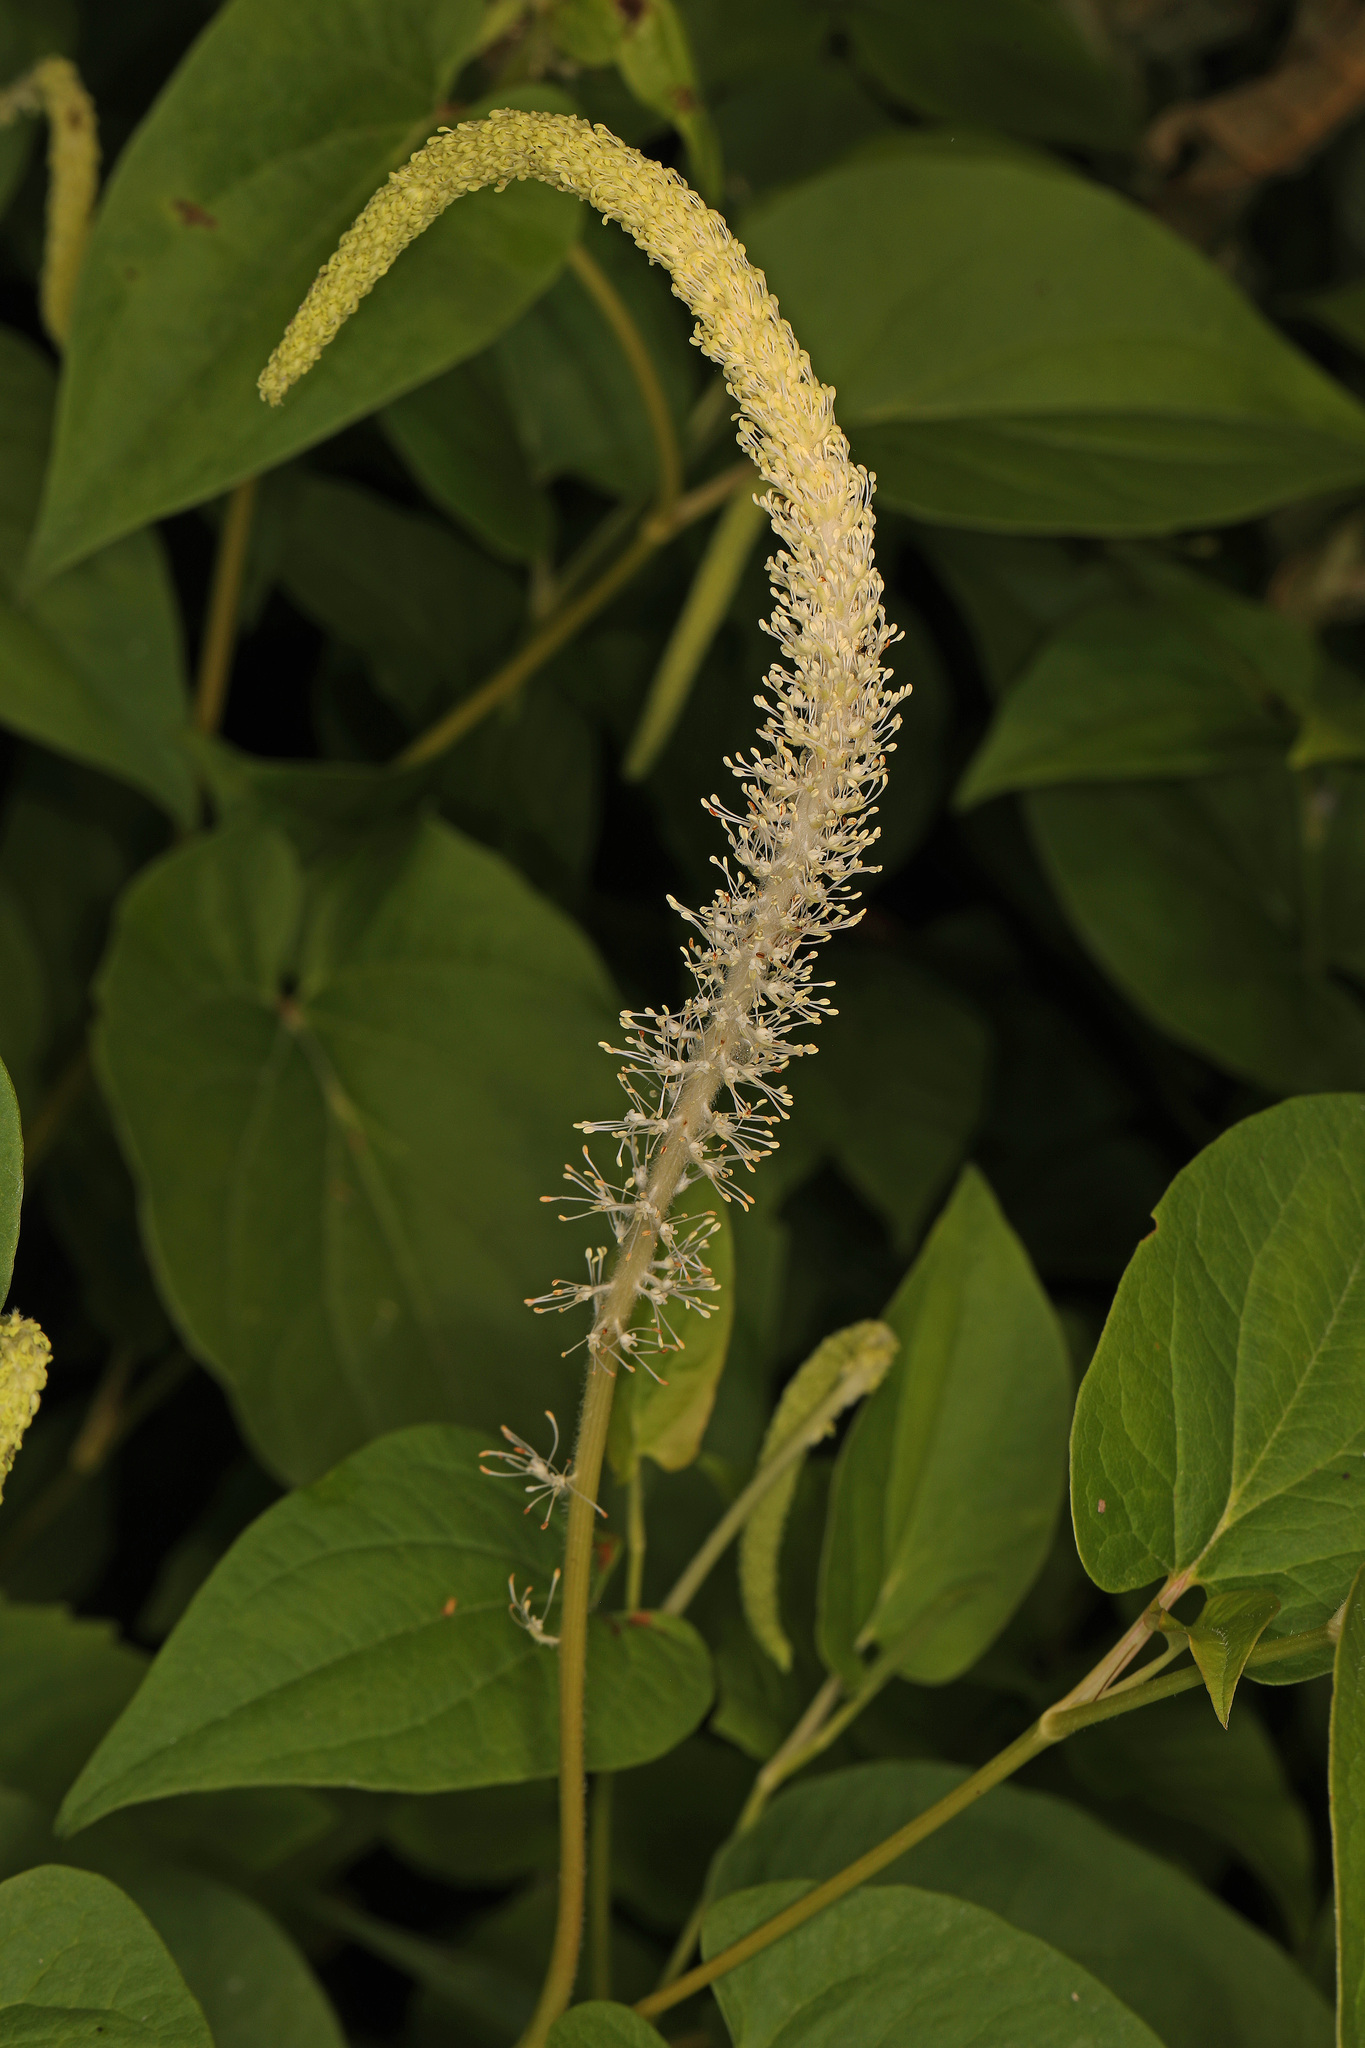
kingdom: Plantae
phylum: Tracheophyta
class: Magnoliopsida
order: Piperales
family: Saururaceae
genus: Saururus
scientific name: Saururus cernuus
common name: Lizard's-tail
